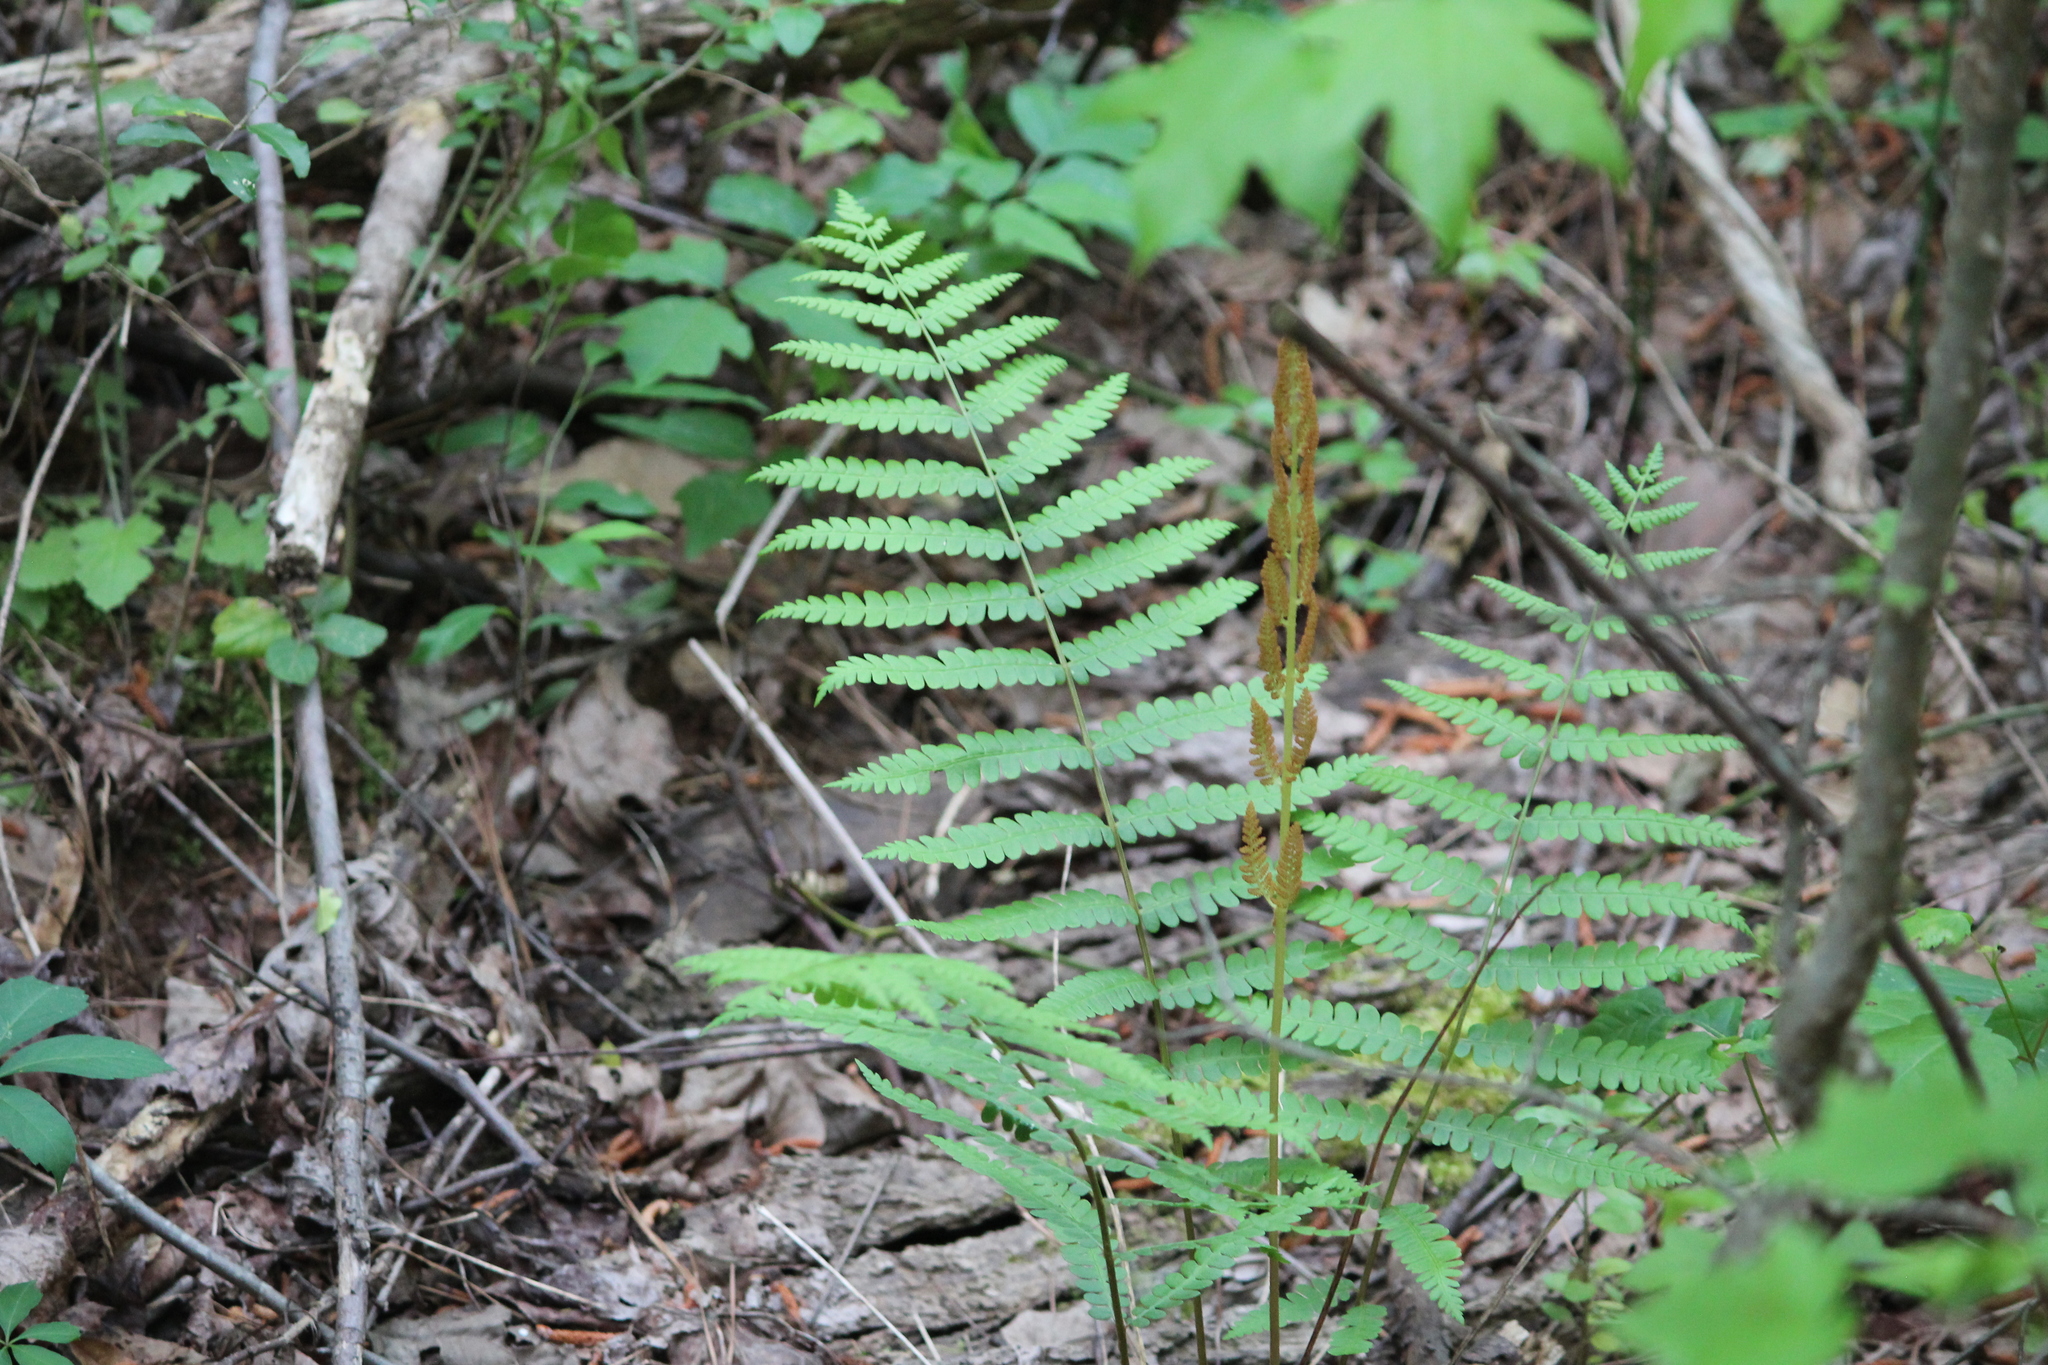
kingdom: Plantae
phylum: Tracheophyta
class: Polypodiopsida
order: Osmundales
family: Osmundaceae
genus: Osmundastrum
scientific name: Osmundastrum cinnamomeum
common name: Cinnamon fern
